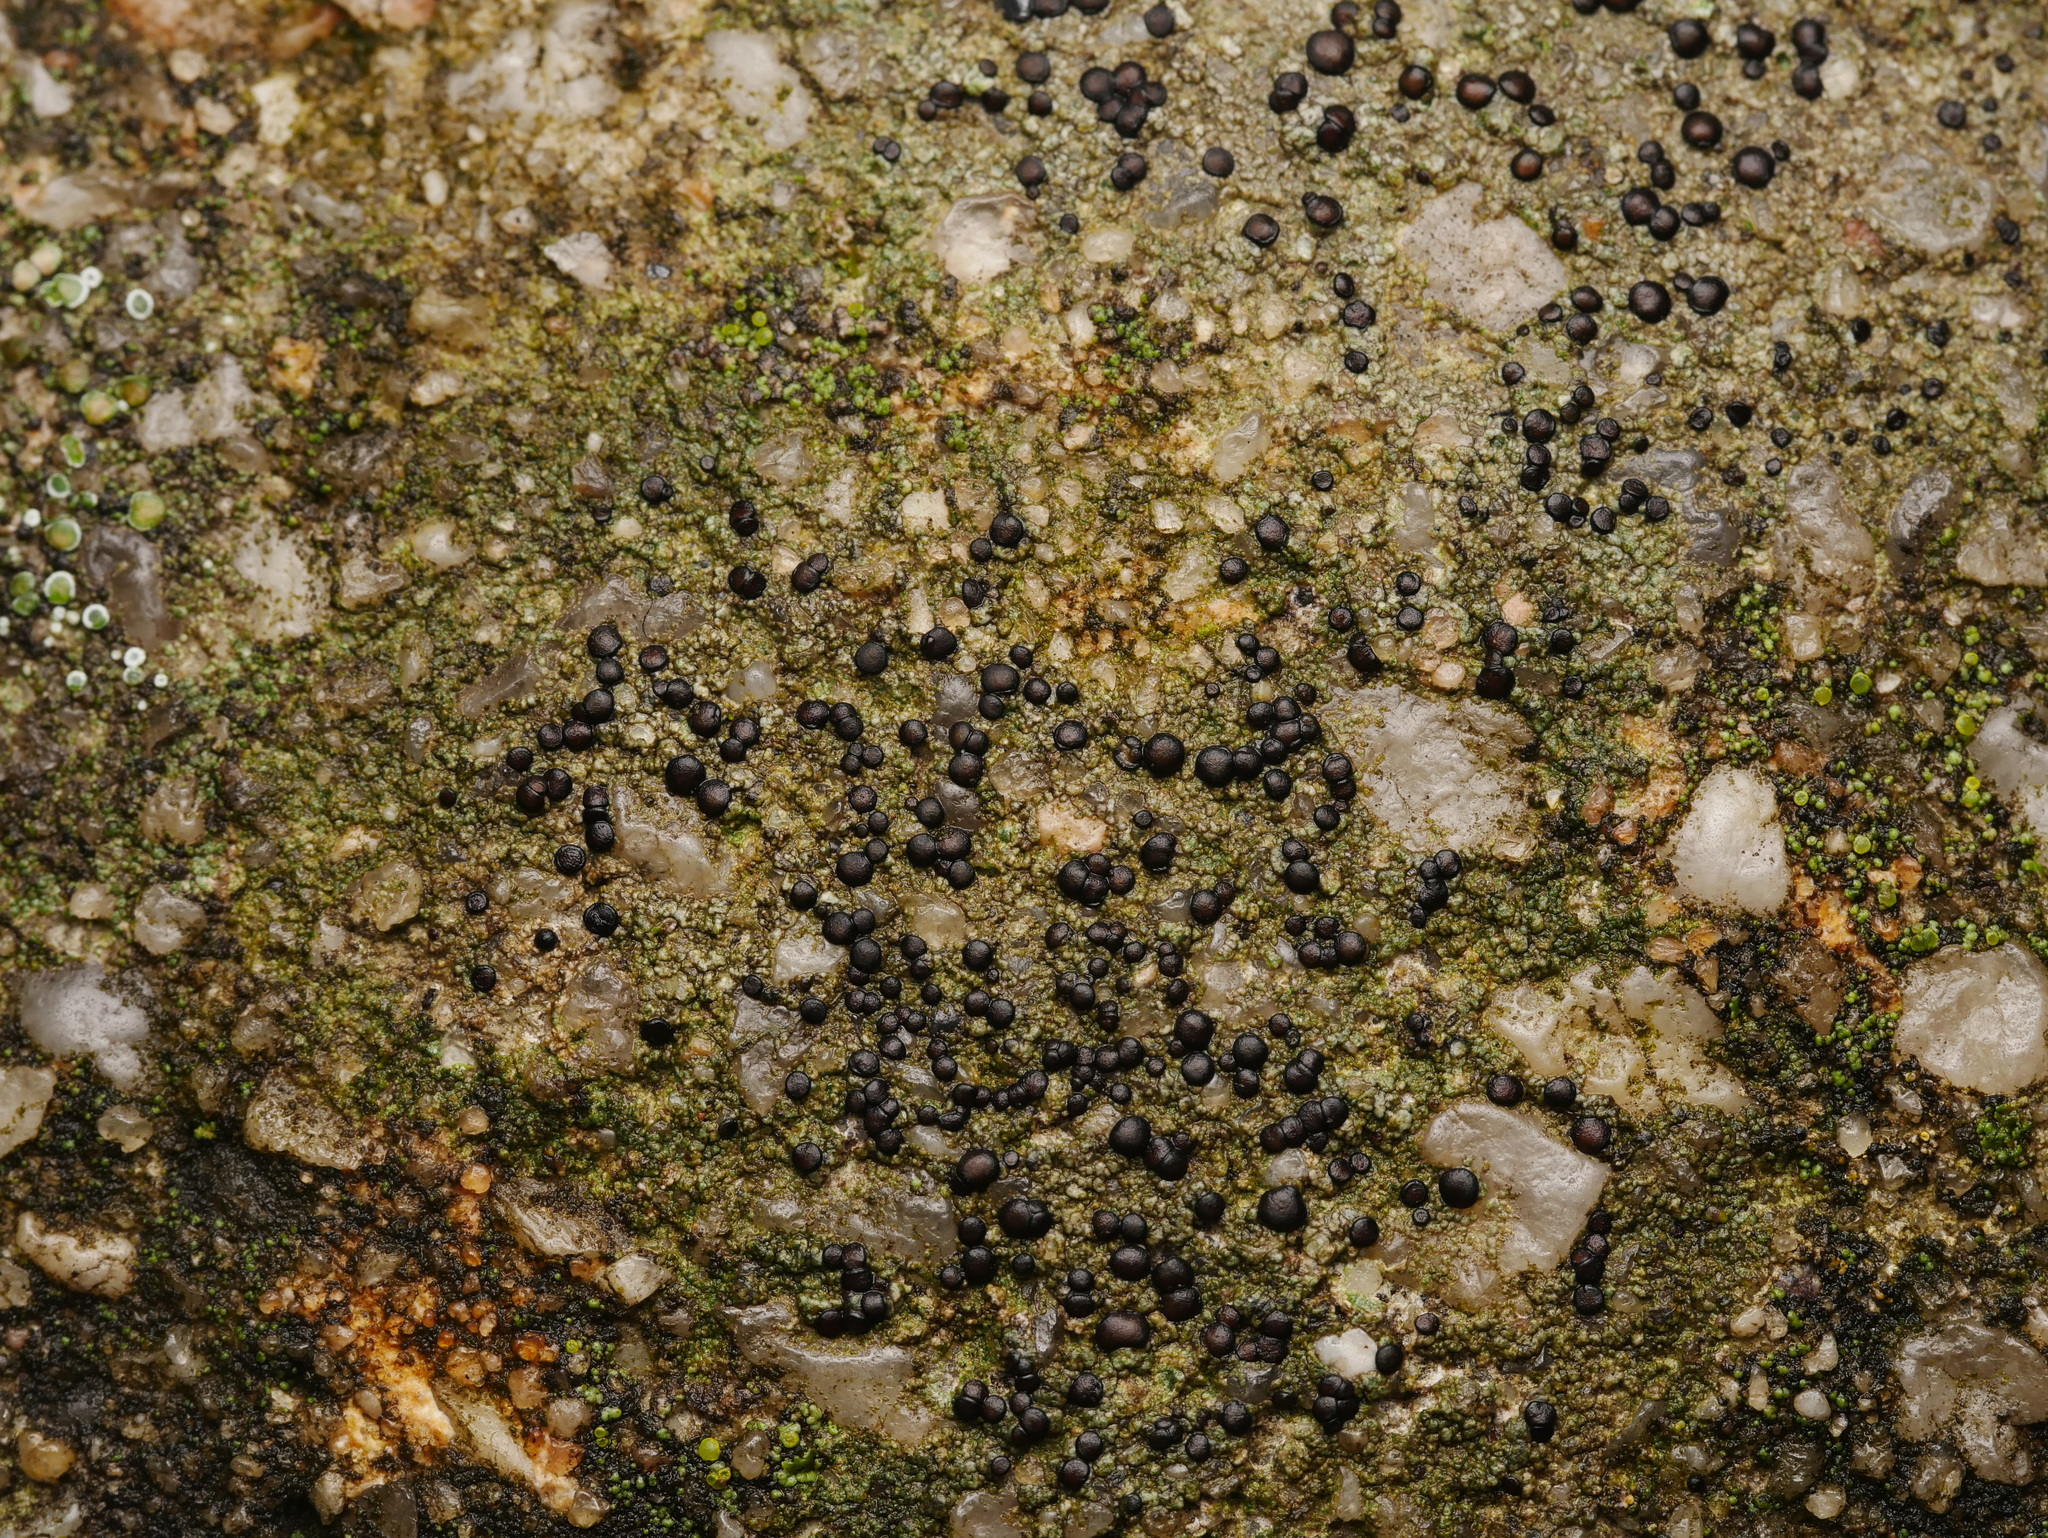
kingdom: Fungi
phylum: Ascomycota
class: Lecanoromycetes
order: Lecanorales
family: Lecanoraceae
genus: Lecidella
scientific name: Lecidella stigmatea
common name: Limestone disc lichen
